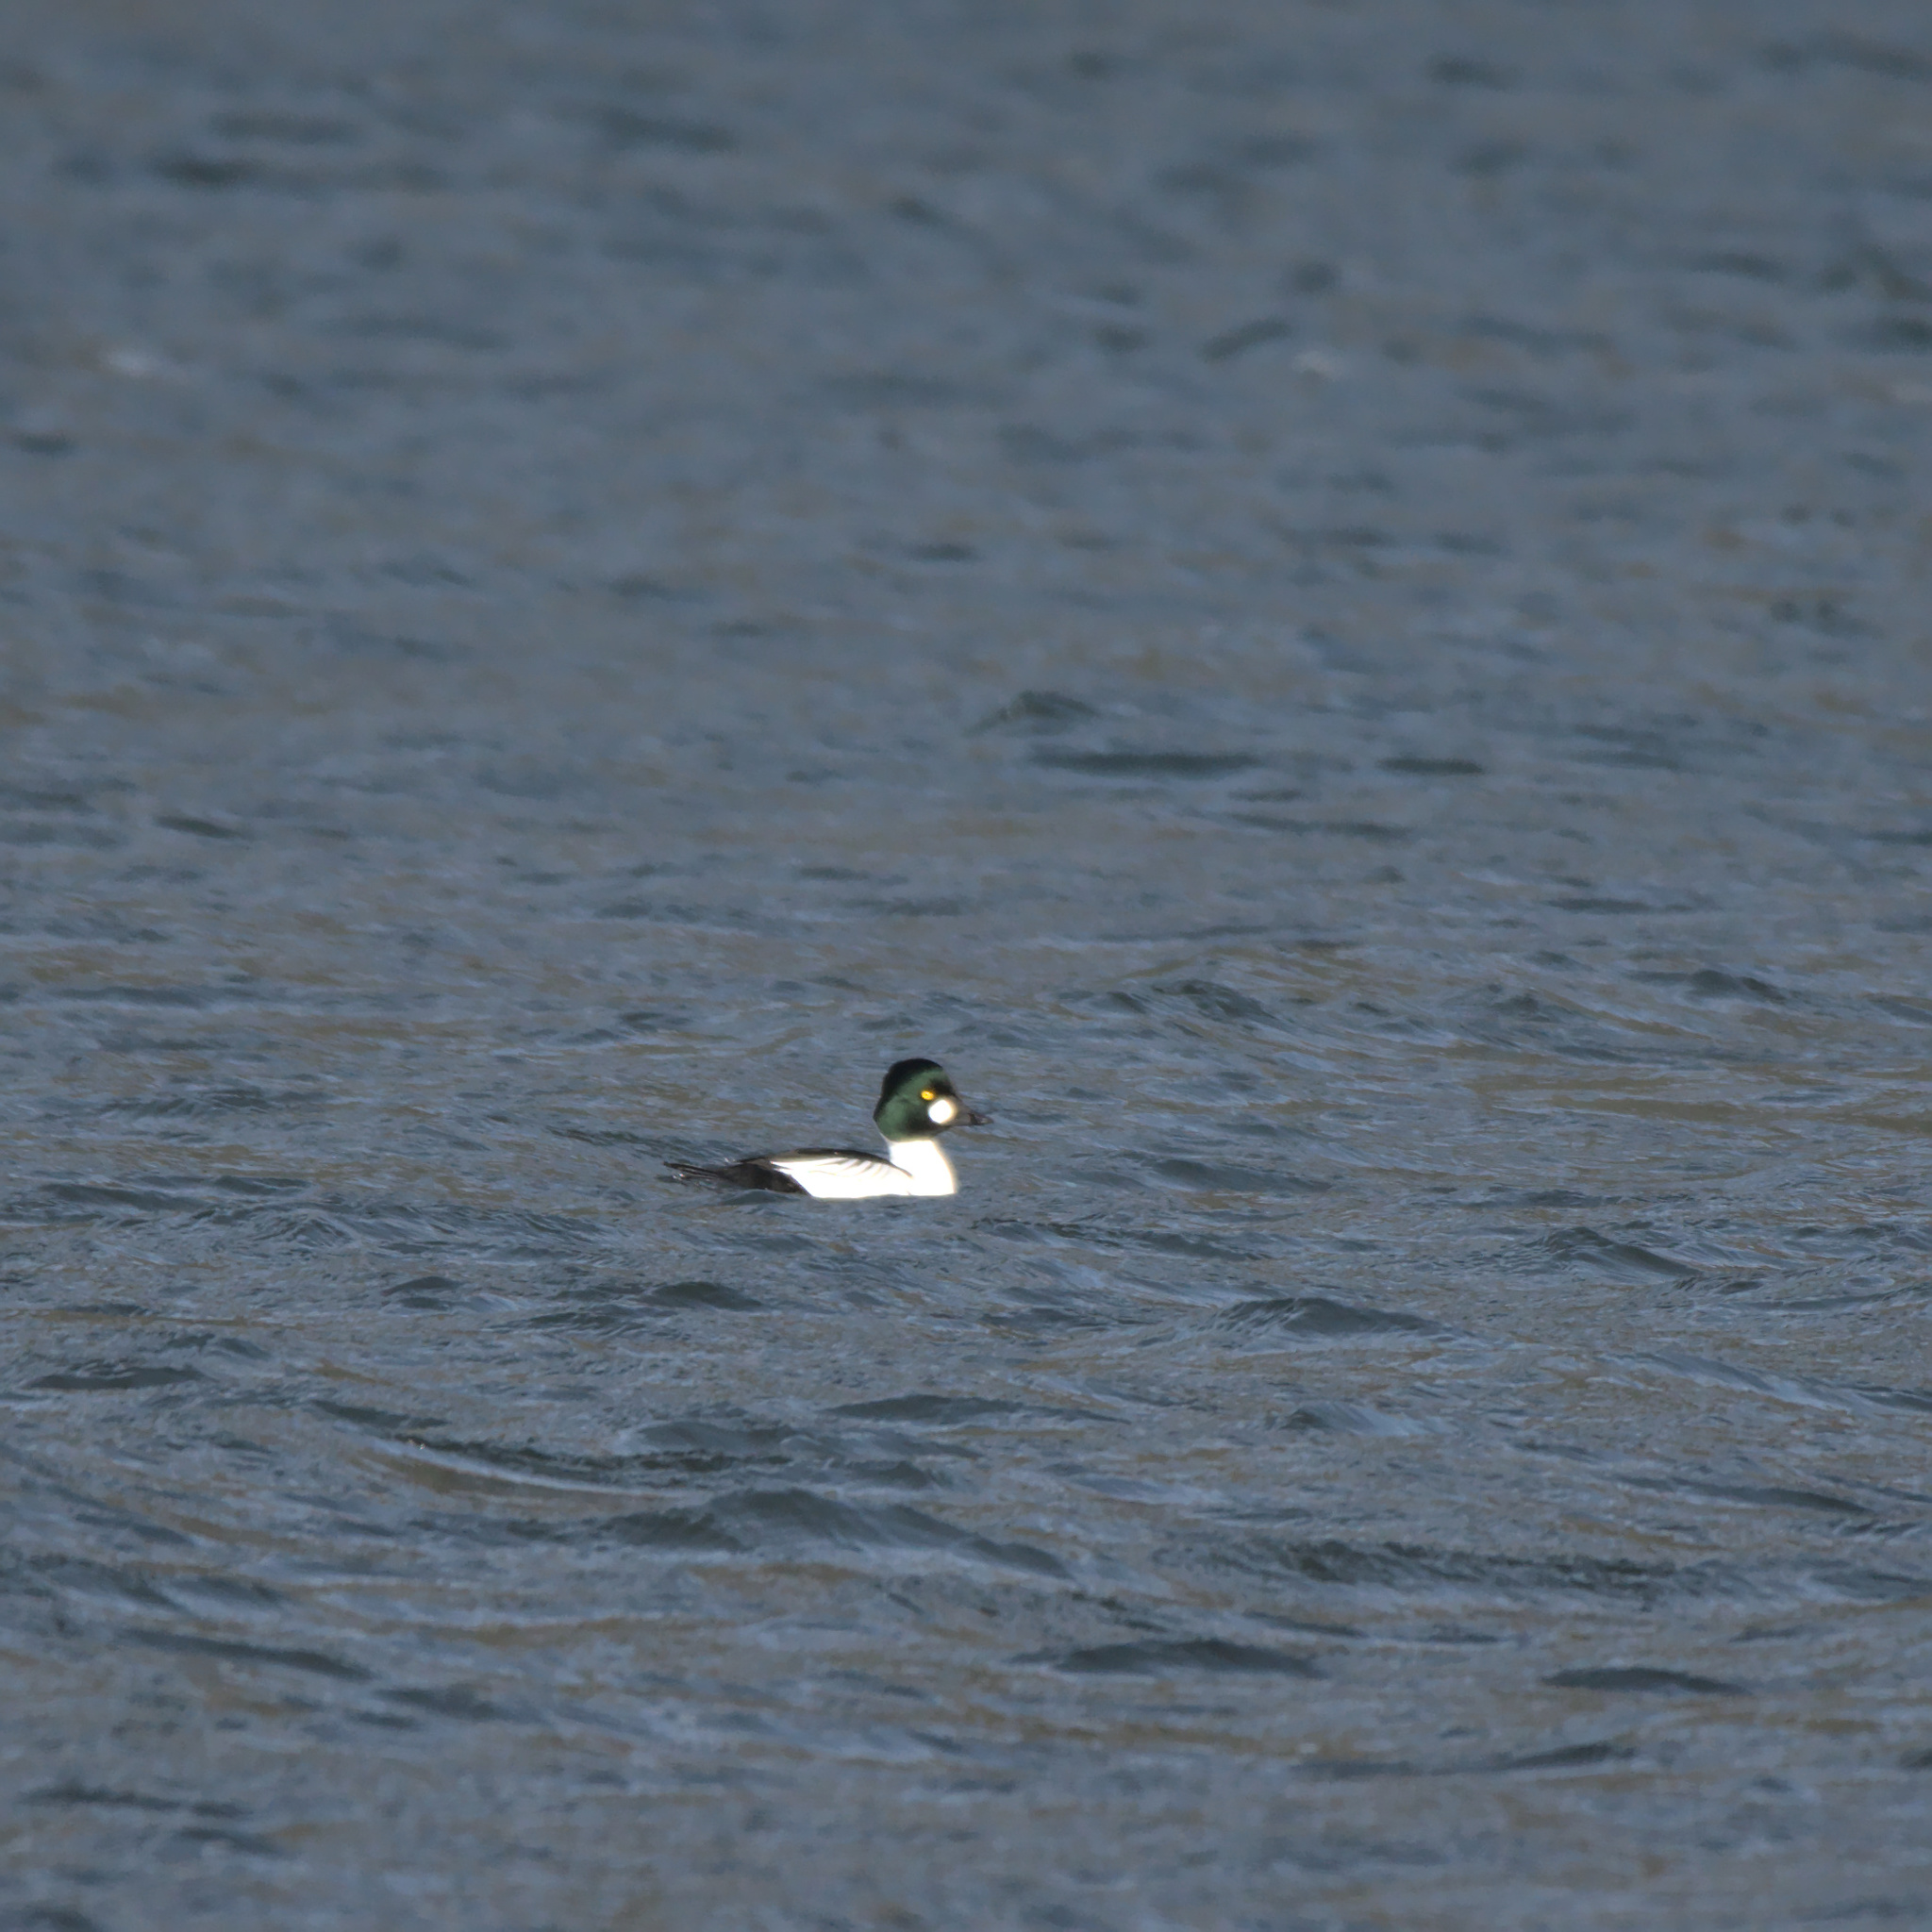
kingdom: Animalia
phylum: Chordata
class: Aves
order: Anseriformes
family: Anatidae
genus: Bucephala
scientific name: Bucephala clangula
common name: Common goldeneye
